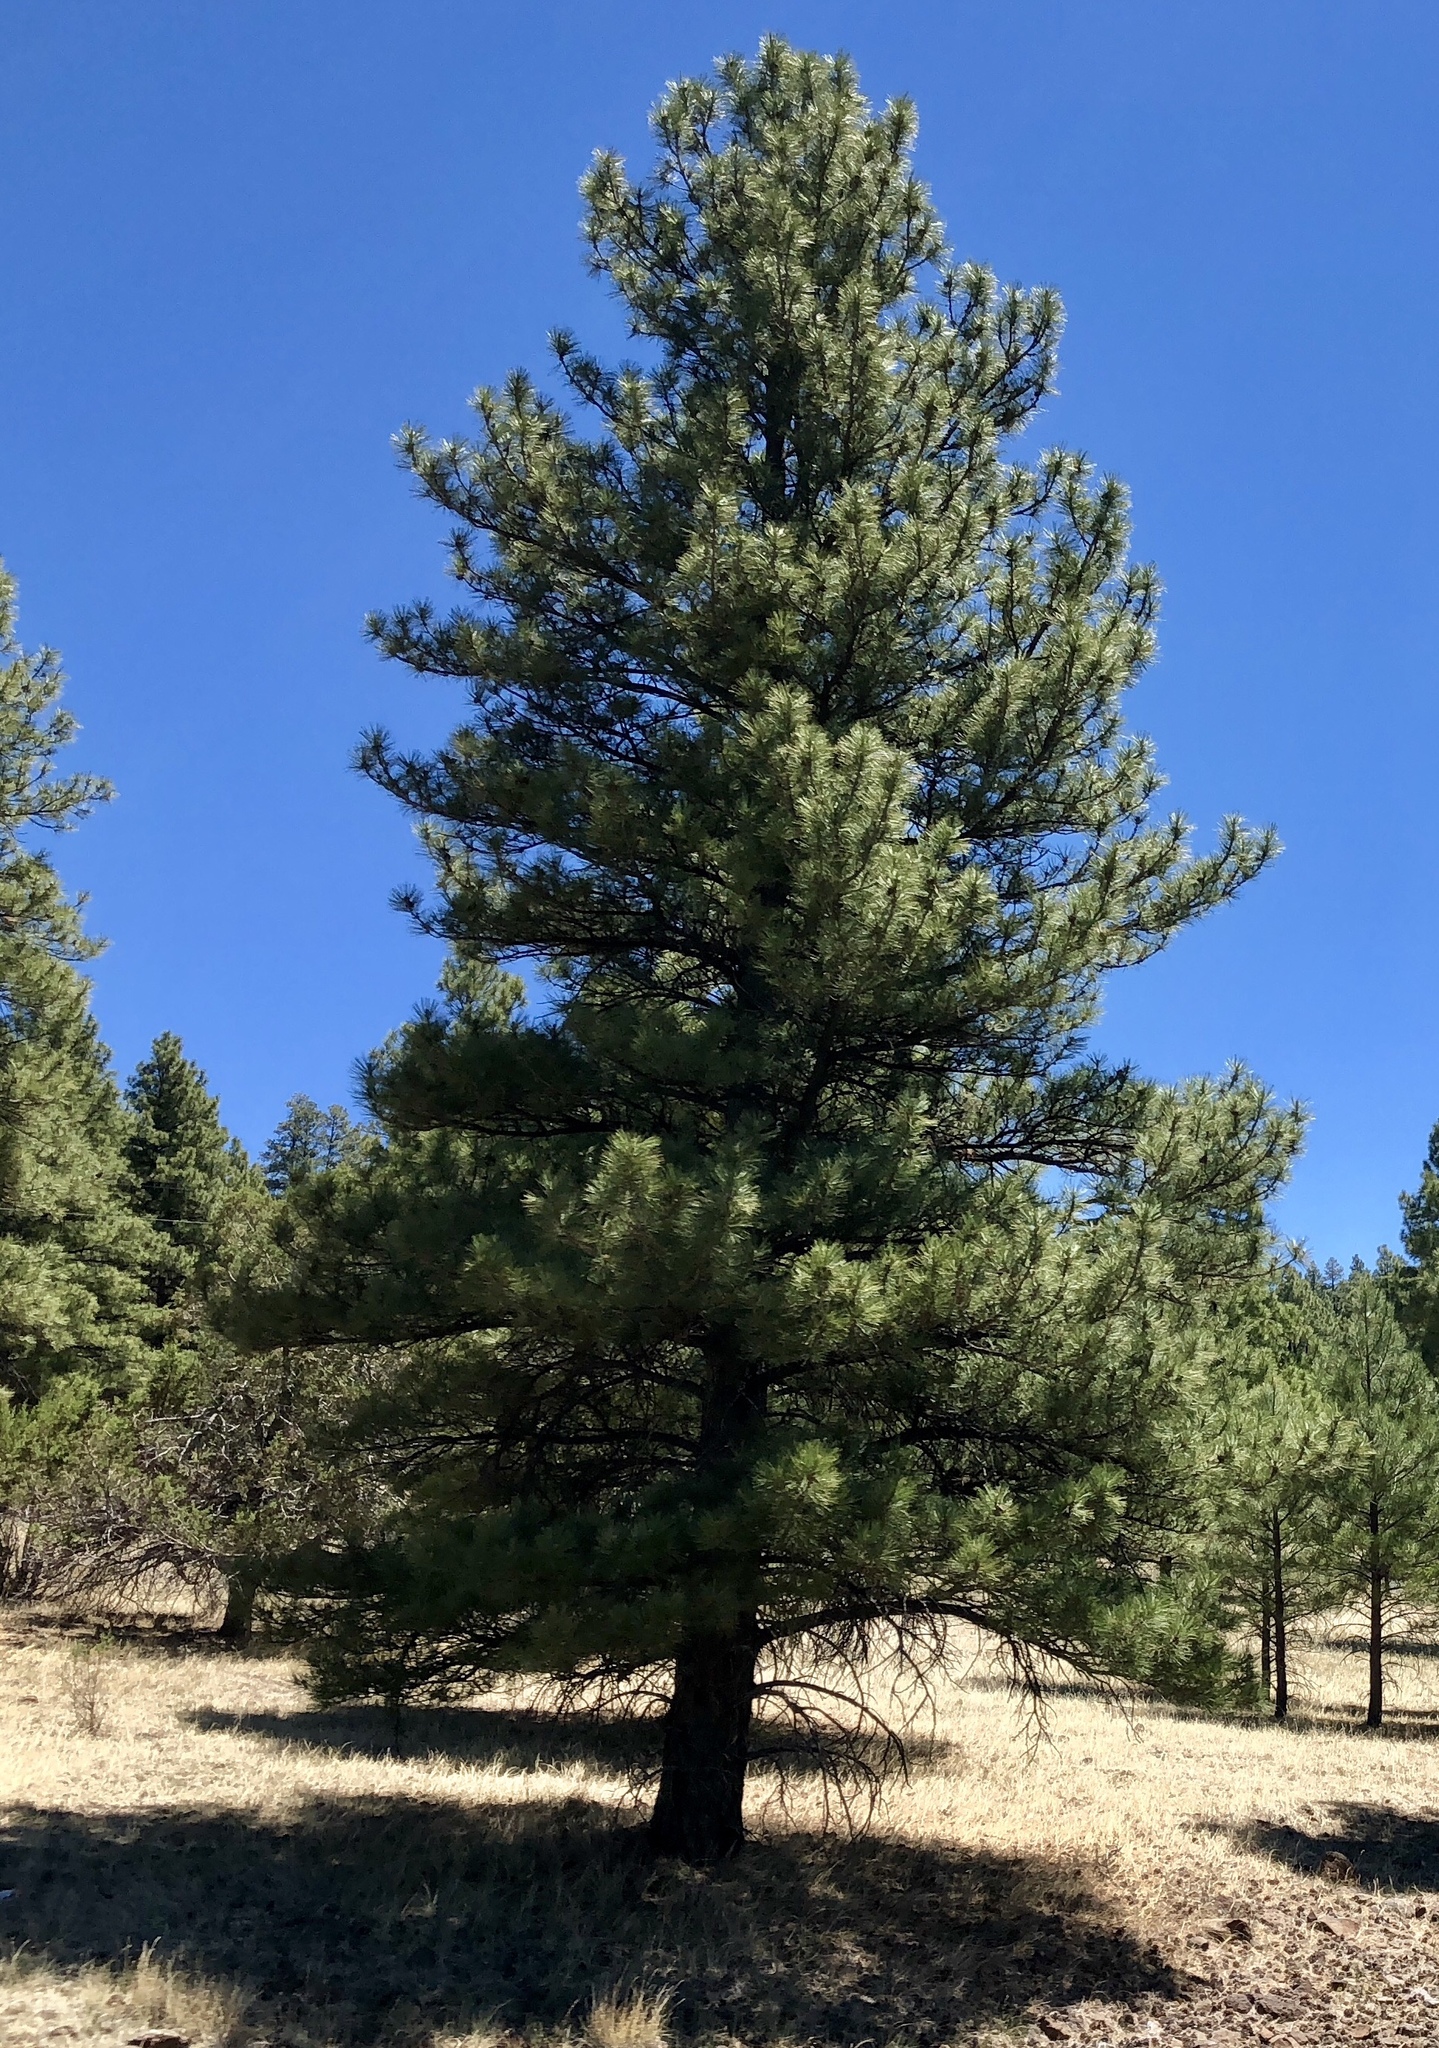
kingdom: Plantae
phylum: Tracheophyta
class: Pinopsida
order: Pinales
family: Pinaceae
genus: Pinus
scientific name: Pinus ponderosa
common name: Western yellow-pine
